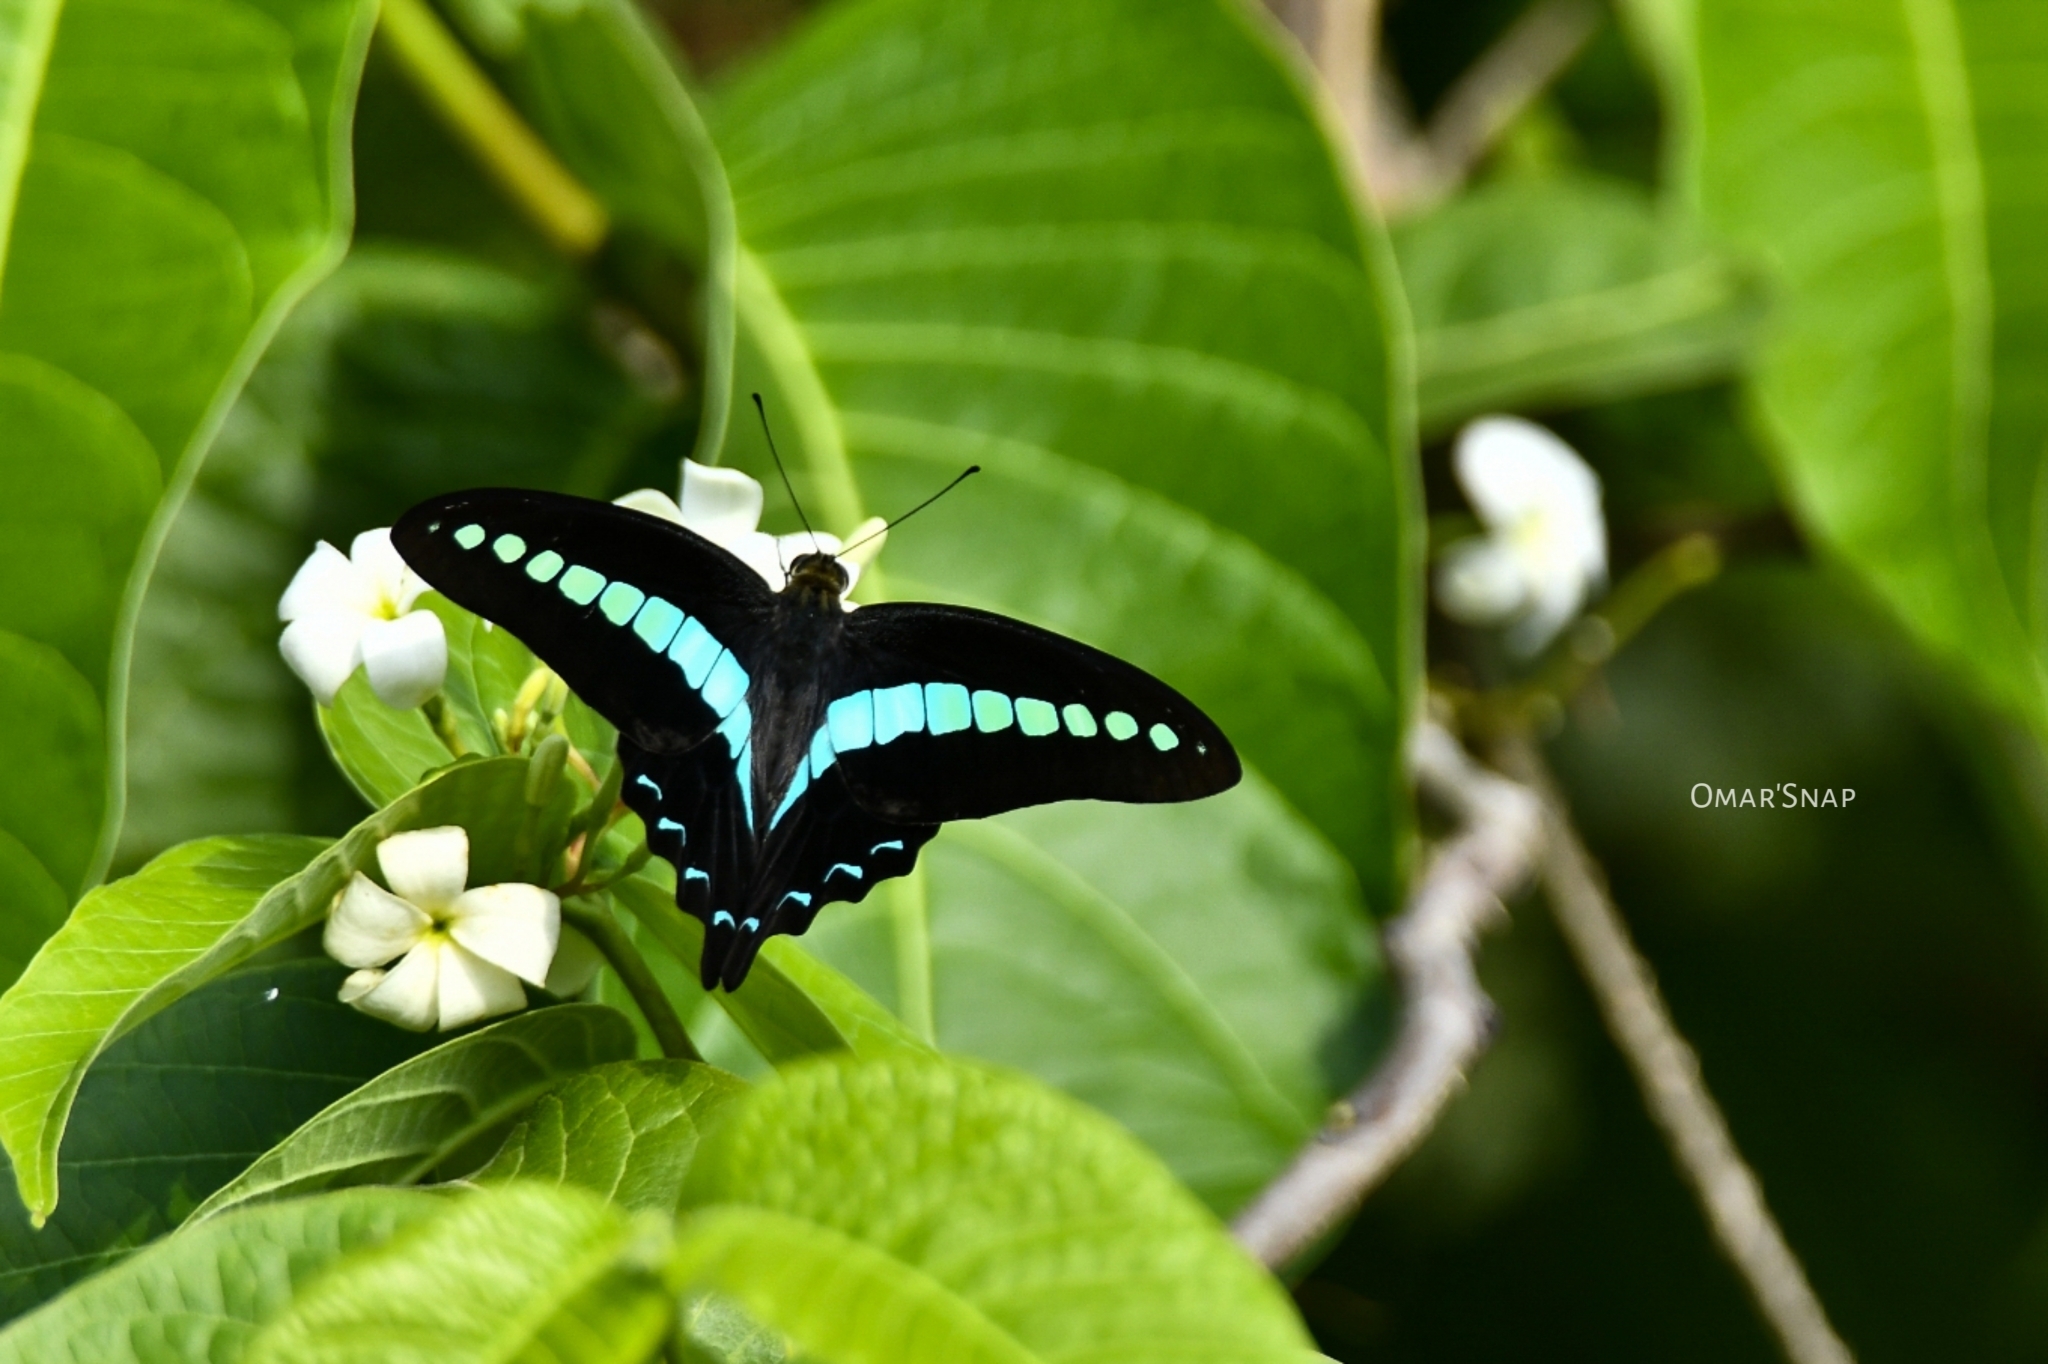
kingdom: Animalia
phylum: Arthropoda
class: Insecta
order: Lepidoptera
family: Papilionidae
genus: Graphium
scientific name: Graphium
